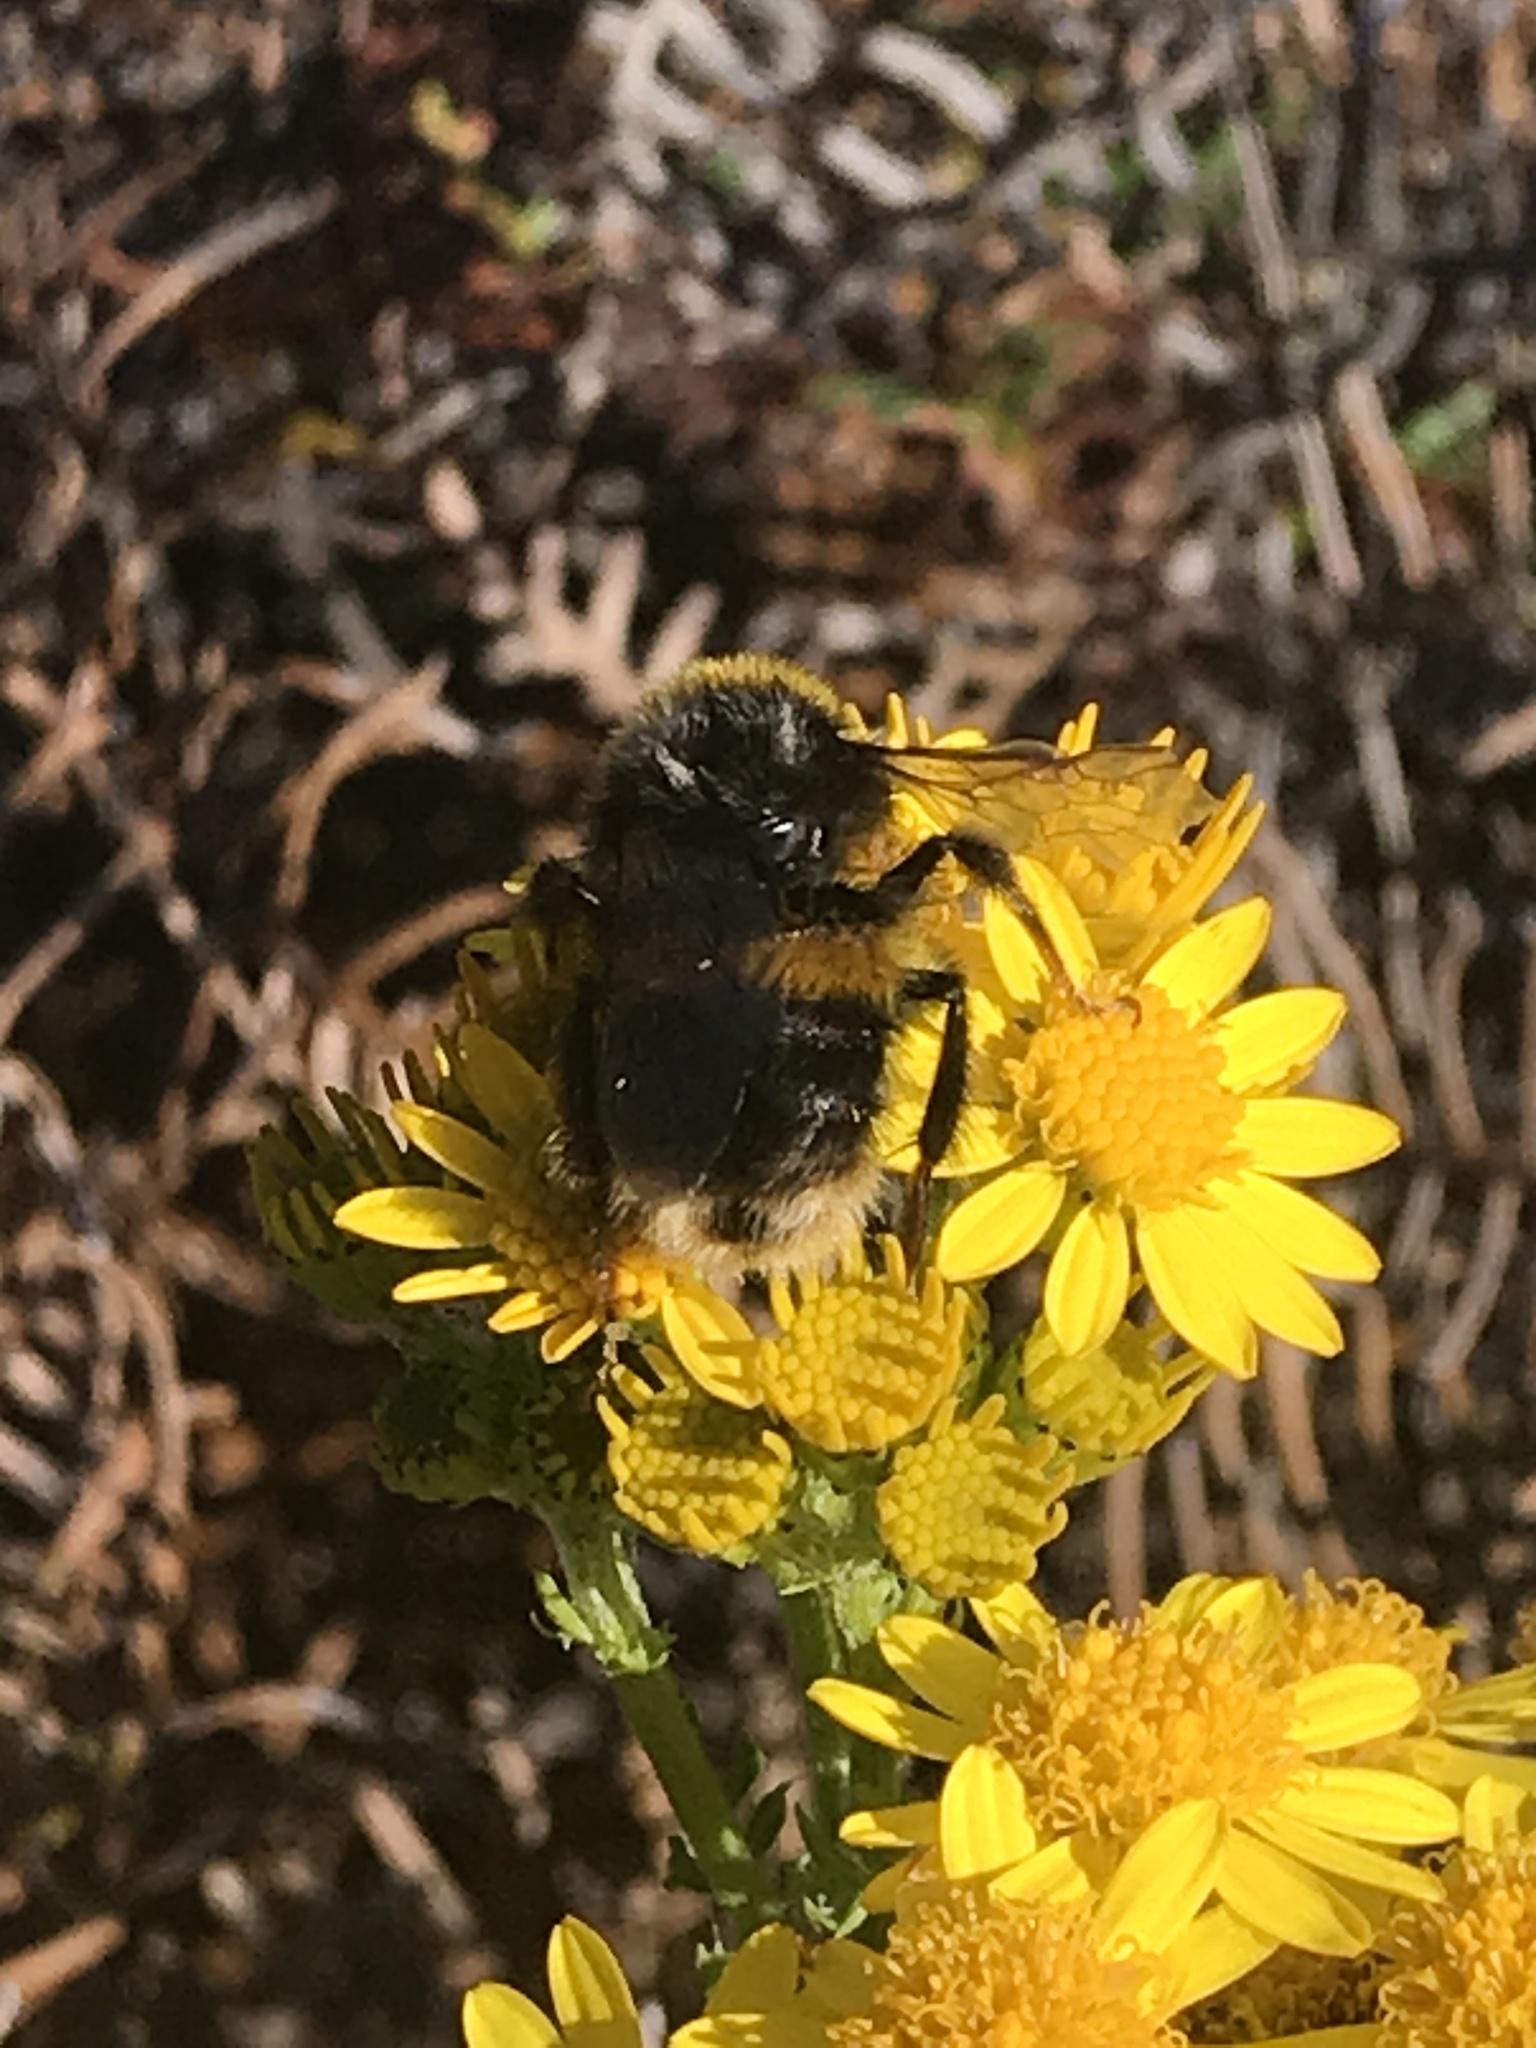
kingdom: Animalia
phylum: Arthropoda
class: Insecta
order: Hymenoptera
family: Apidae
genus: Bombus
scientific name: Bombus terrestris
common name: Buff-tailed bumblebee
